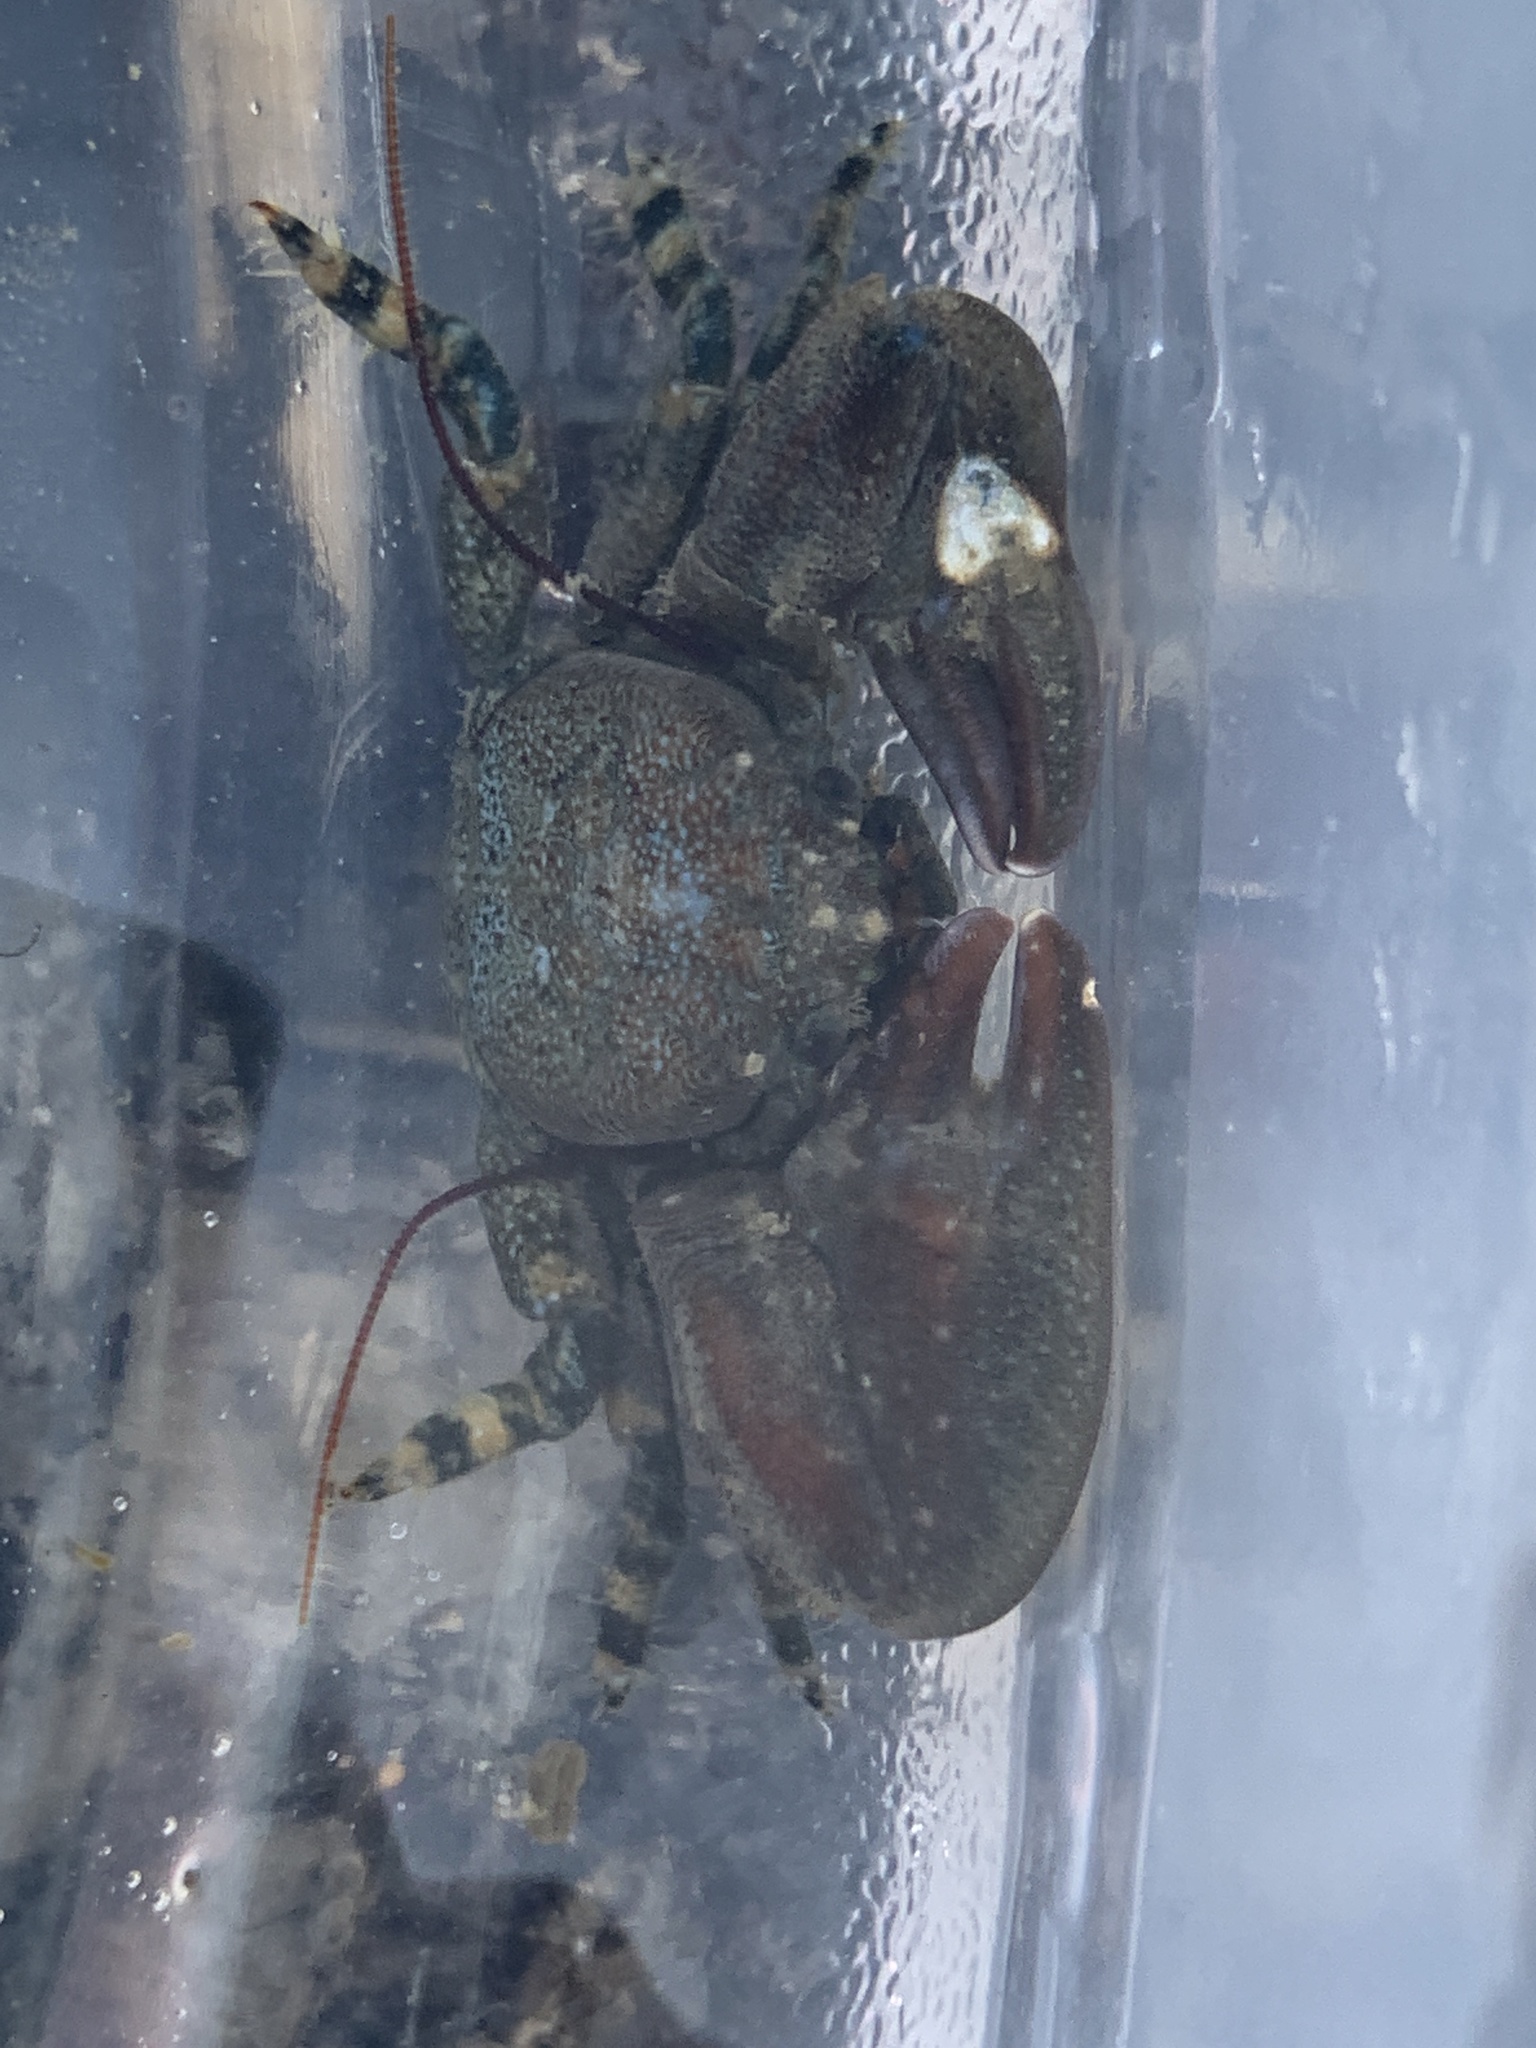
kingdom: Animalia
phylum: Arthropoda
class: Malacostraca
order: Decapoda
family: Porcellanidae
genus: Petrolisthes
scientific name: Petrolisthes cinctipes
